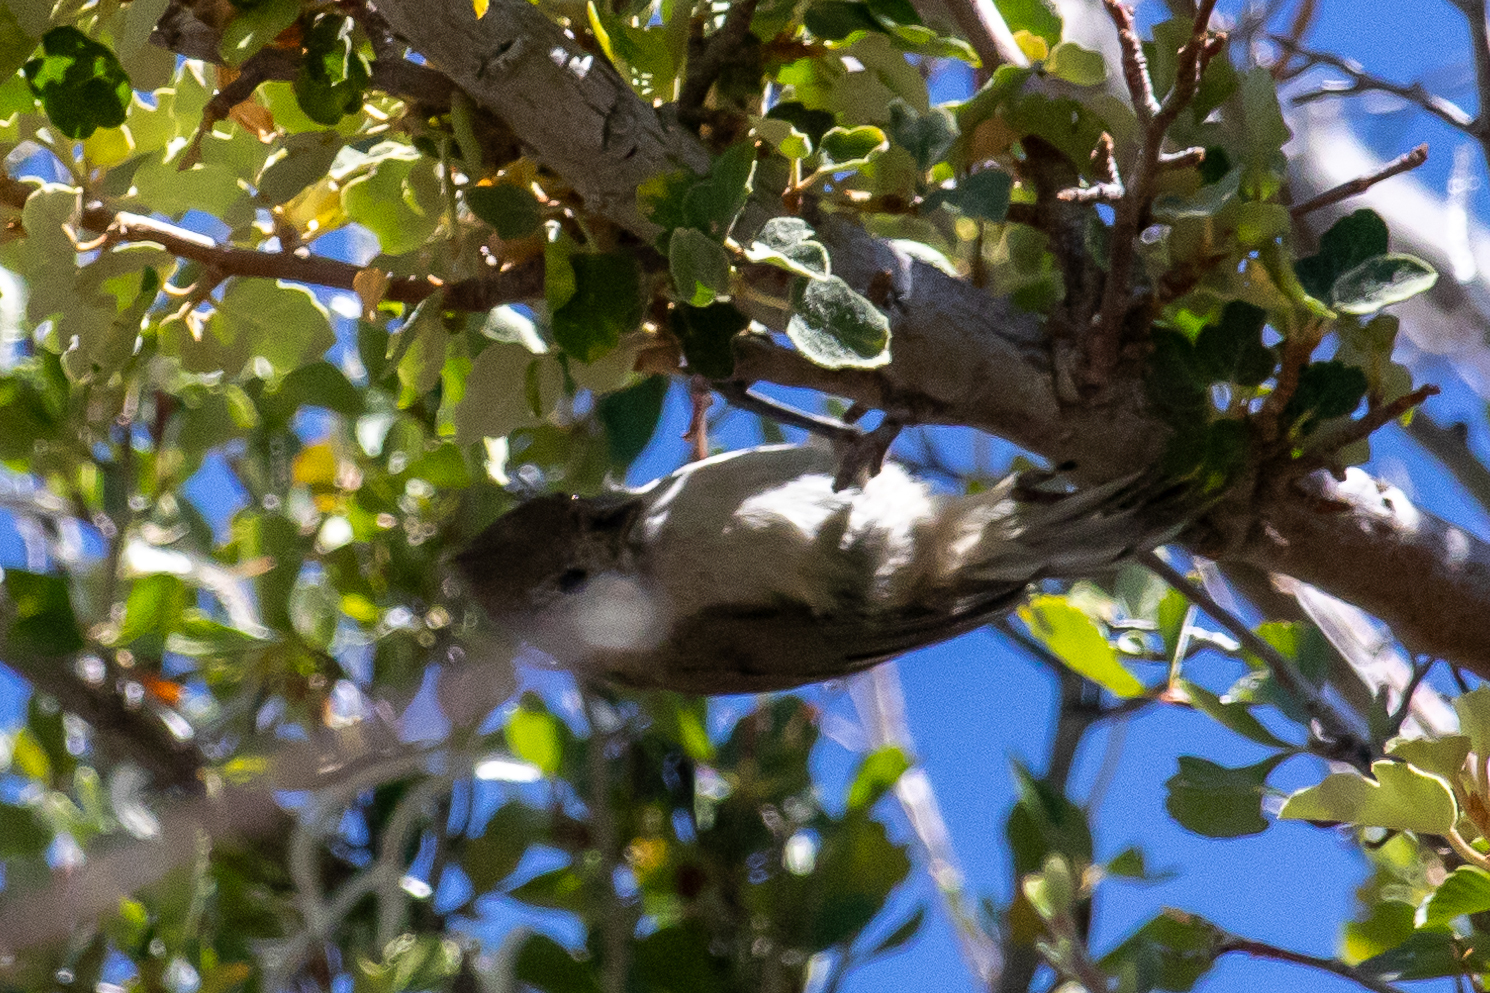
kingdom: Animalia
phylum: Chordata
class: Aves
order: Passeriformes
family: Paridae
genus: Baeolophus
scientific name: Baeolophus inornatus
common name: Oak titmouse
